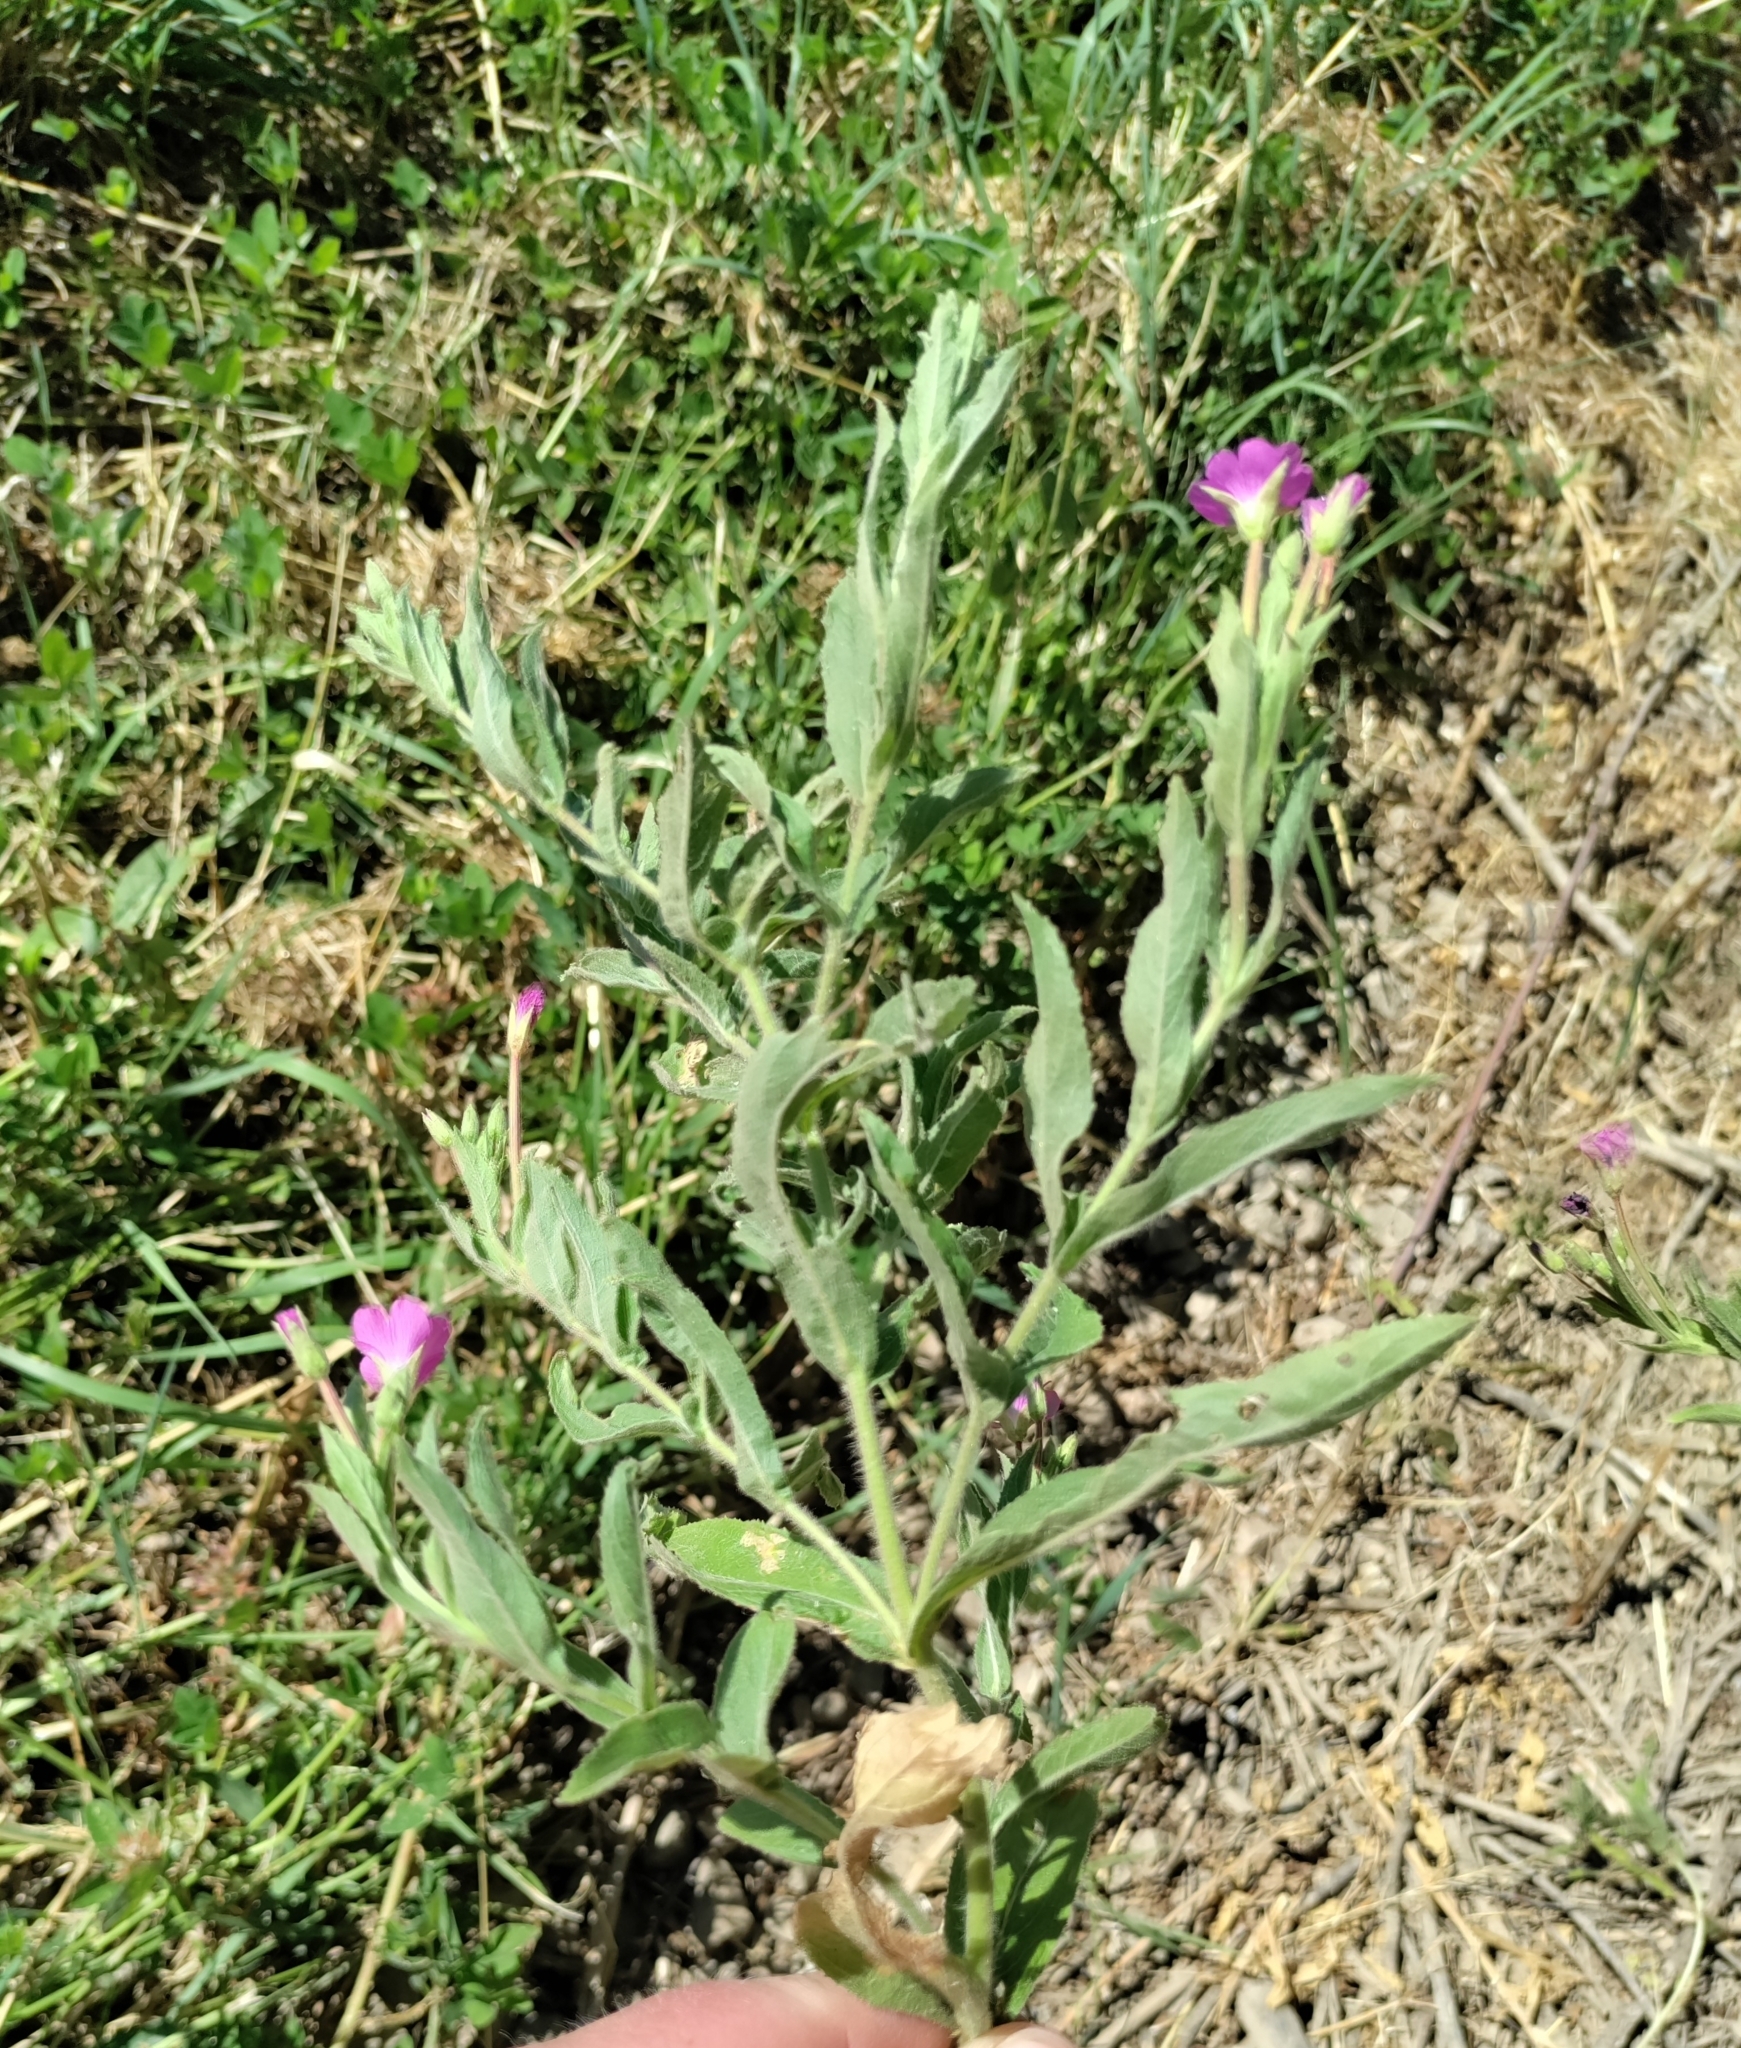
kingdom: Plantae
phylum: Tracheophyta
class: Magnoliopsida
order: Myrtales
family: Onagraceae
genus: Epilobium
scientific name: Epilobium hirsutum
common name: Great willowherb
